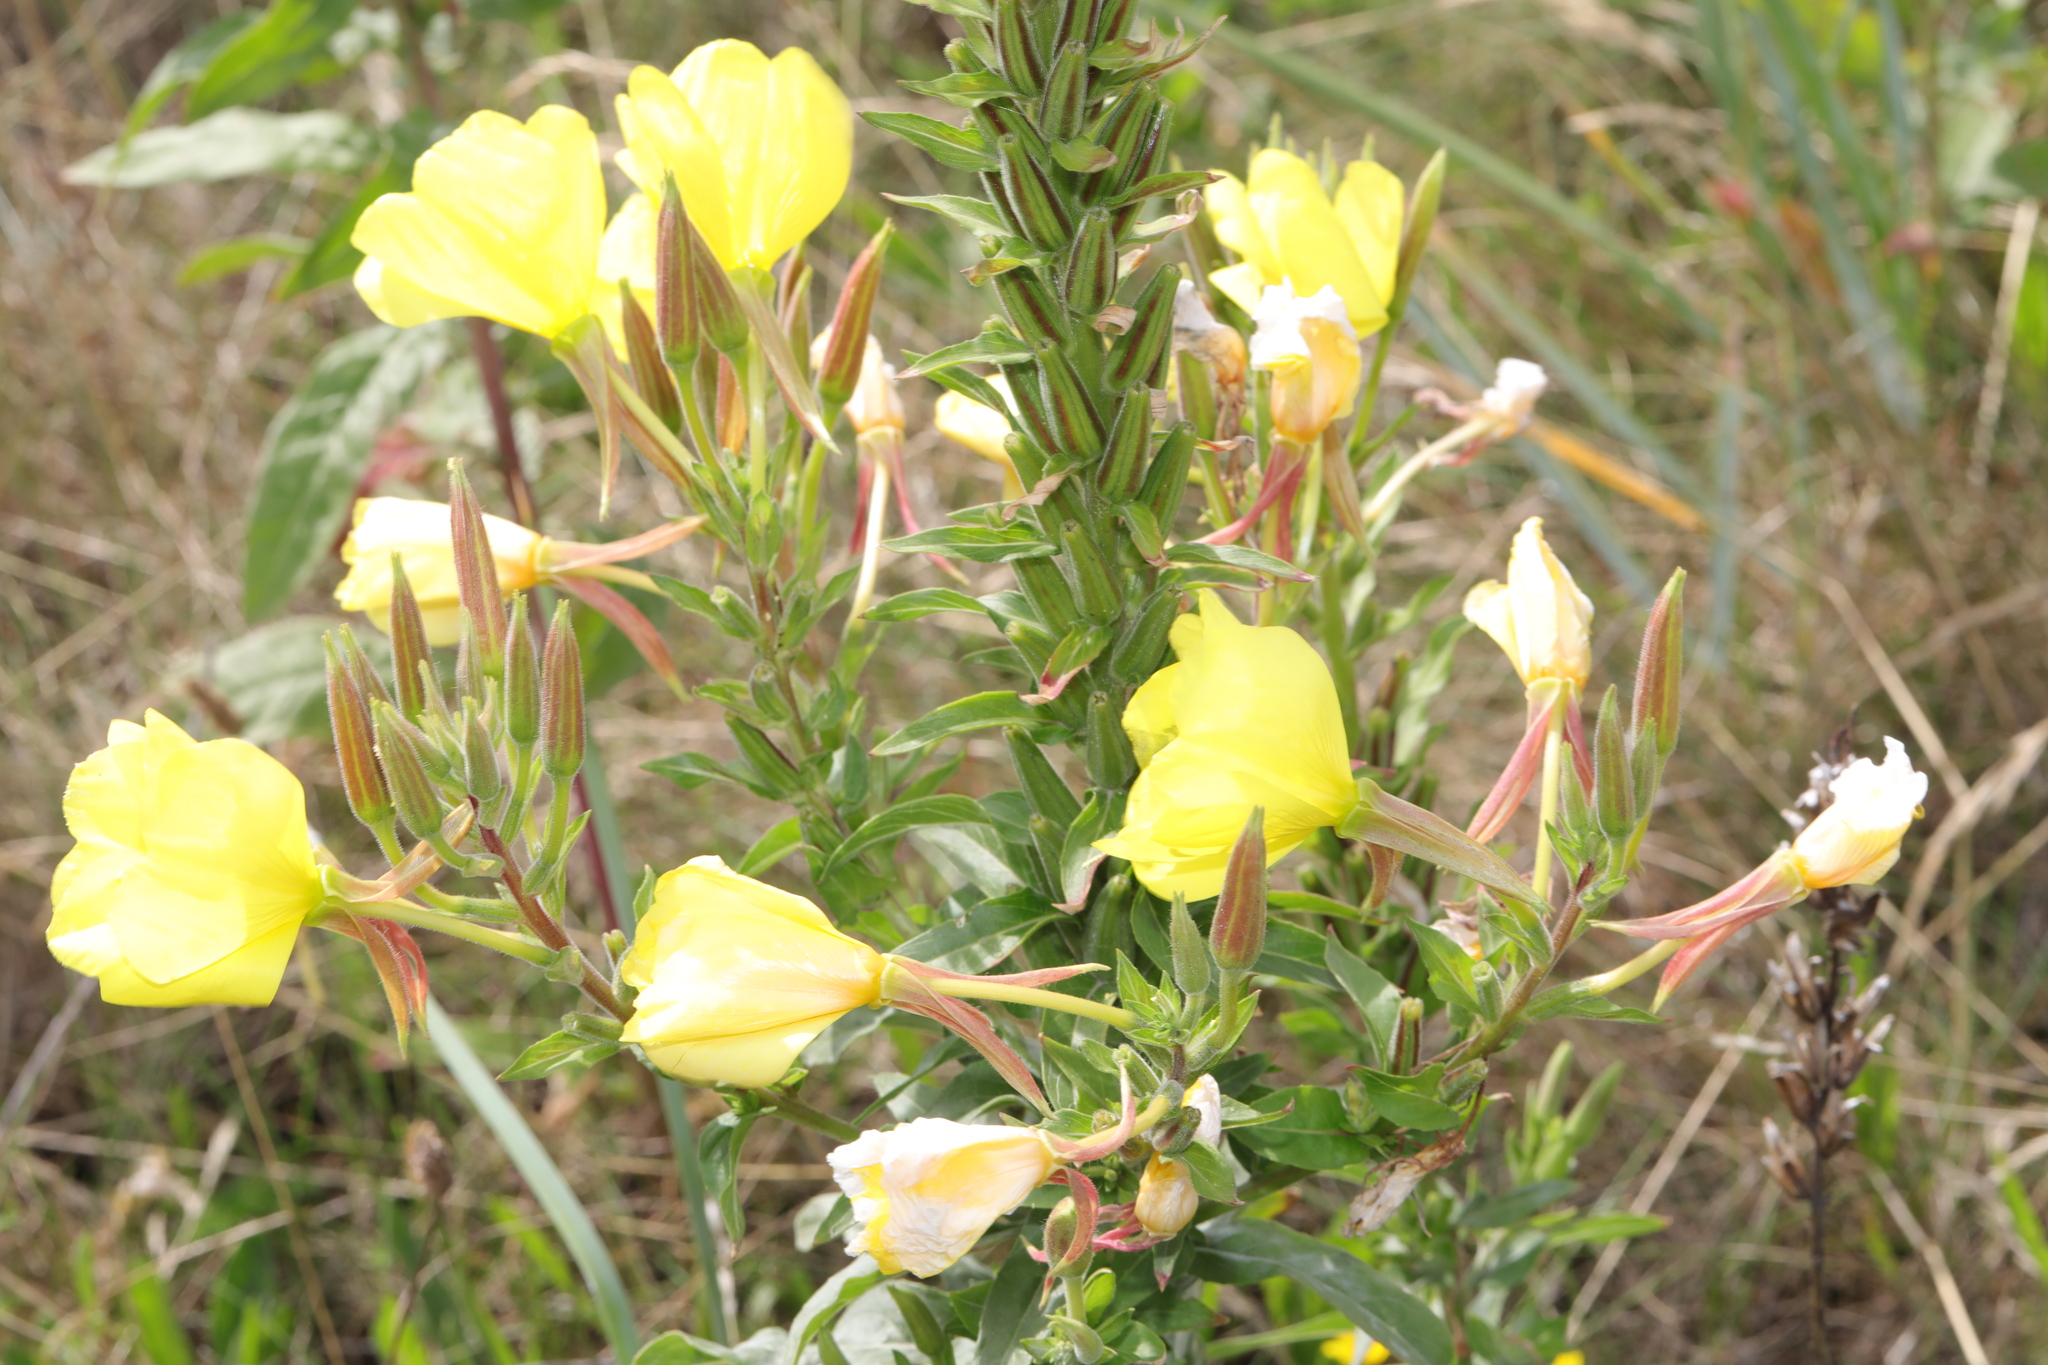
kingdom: Plantae
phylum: Tracheophyta
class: Magnoliopsida
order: Myrtales
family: Onagraceae
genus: Oenothera
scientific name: Oenothera fallax
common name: Intermediate evening-primrose
